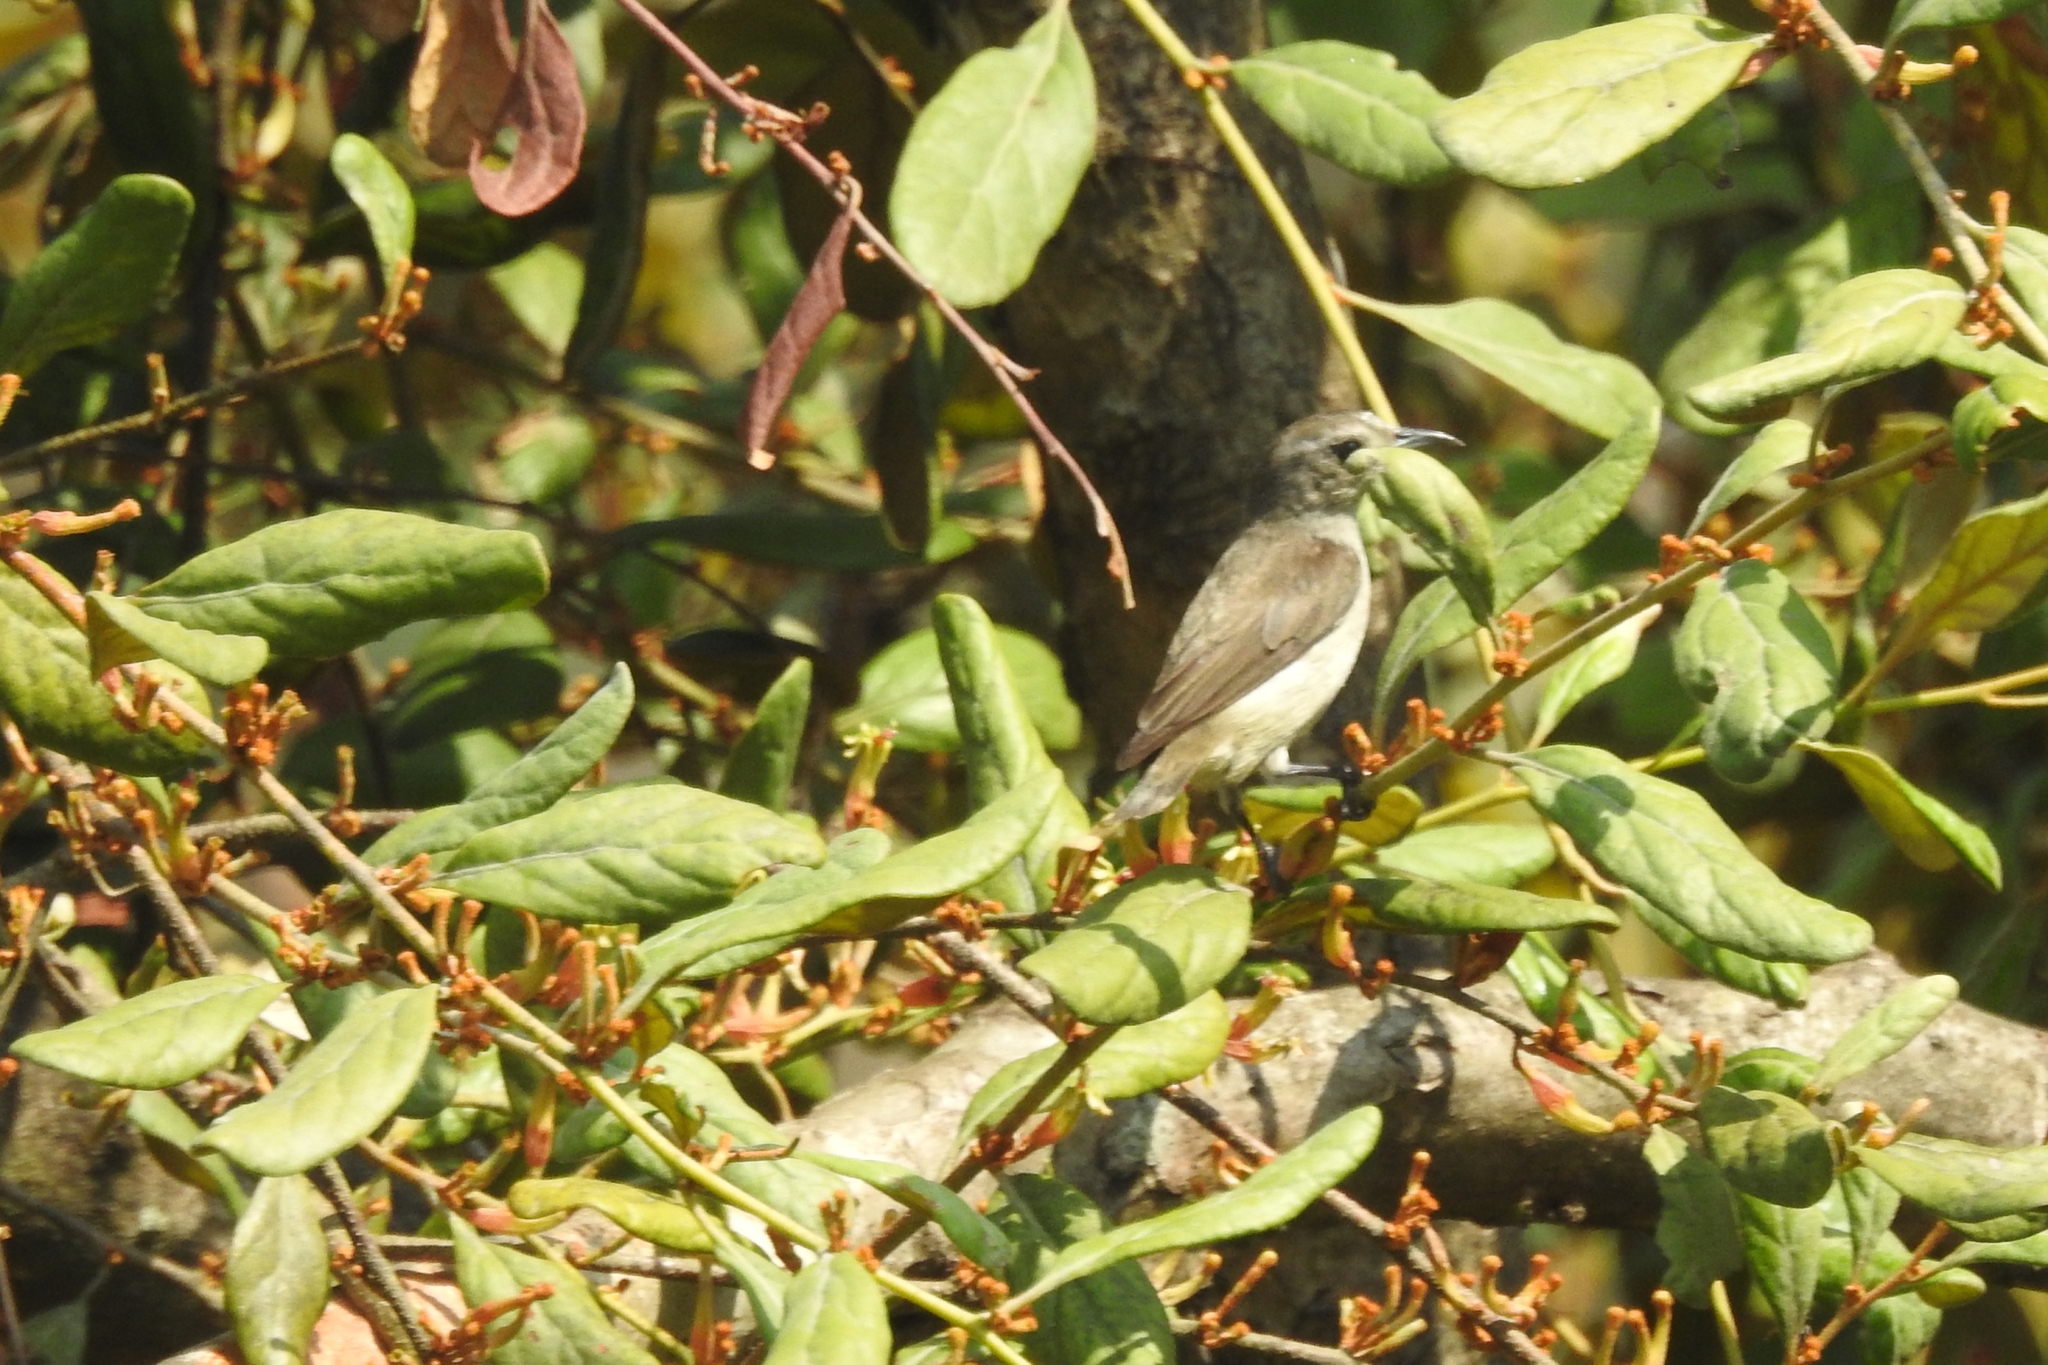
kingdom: Animalia
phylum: Chordata
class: Aves
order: Passeriformes
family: Dicaeidae
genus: Dicaeum
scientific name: Dicaeum concolor
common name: Nilgiri flowerpecker
